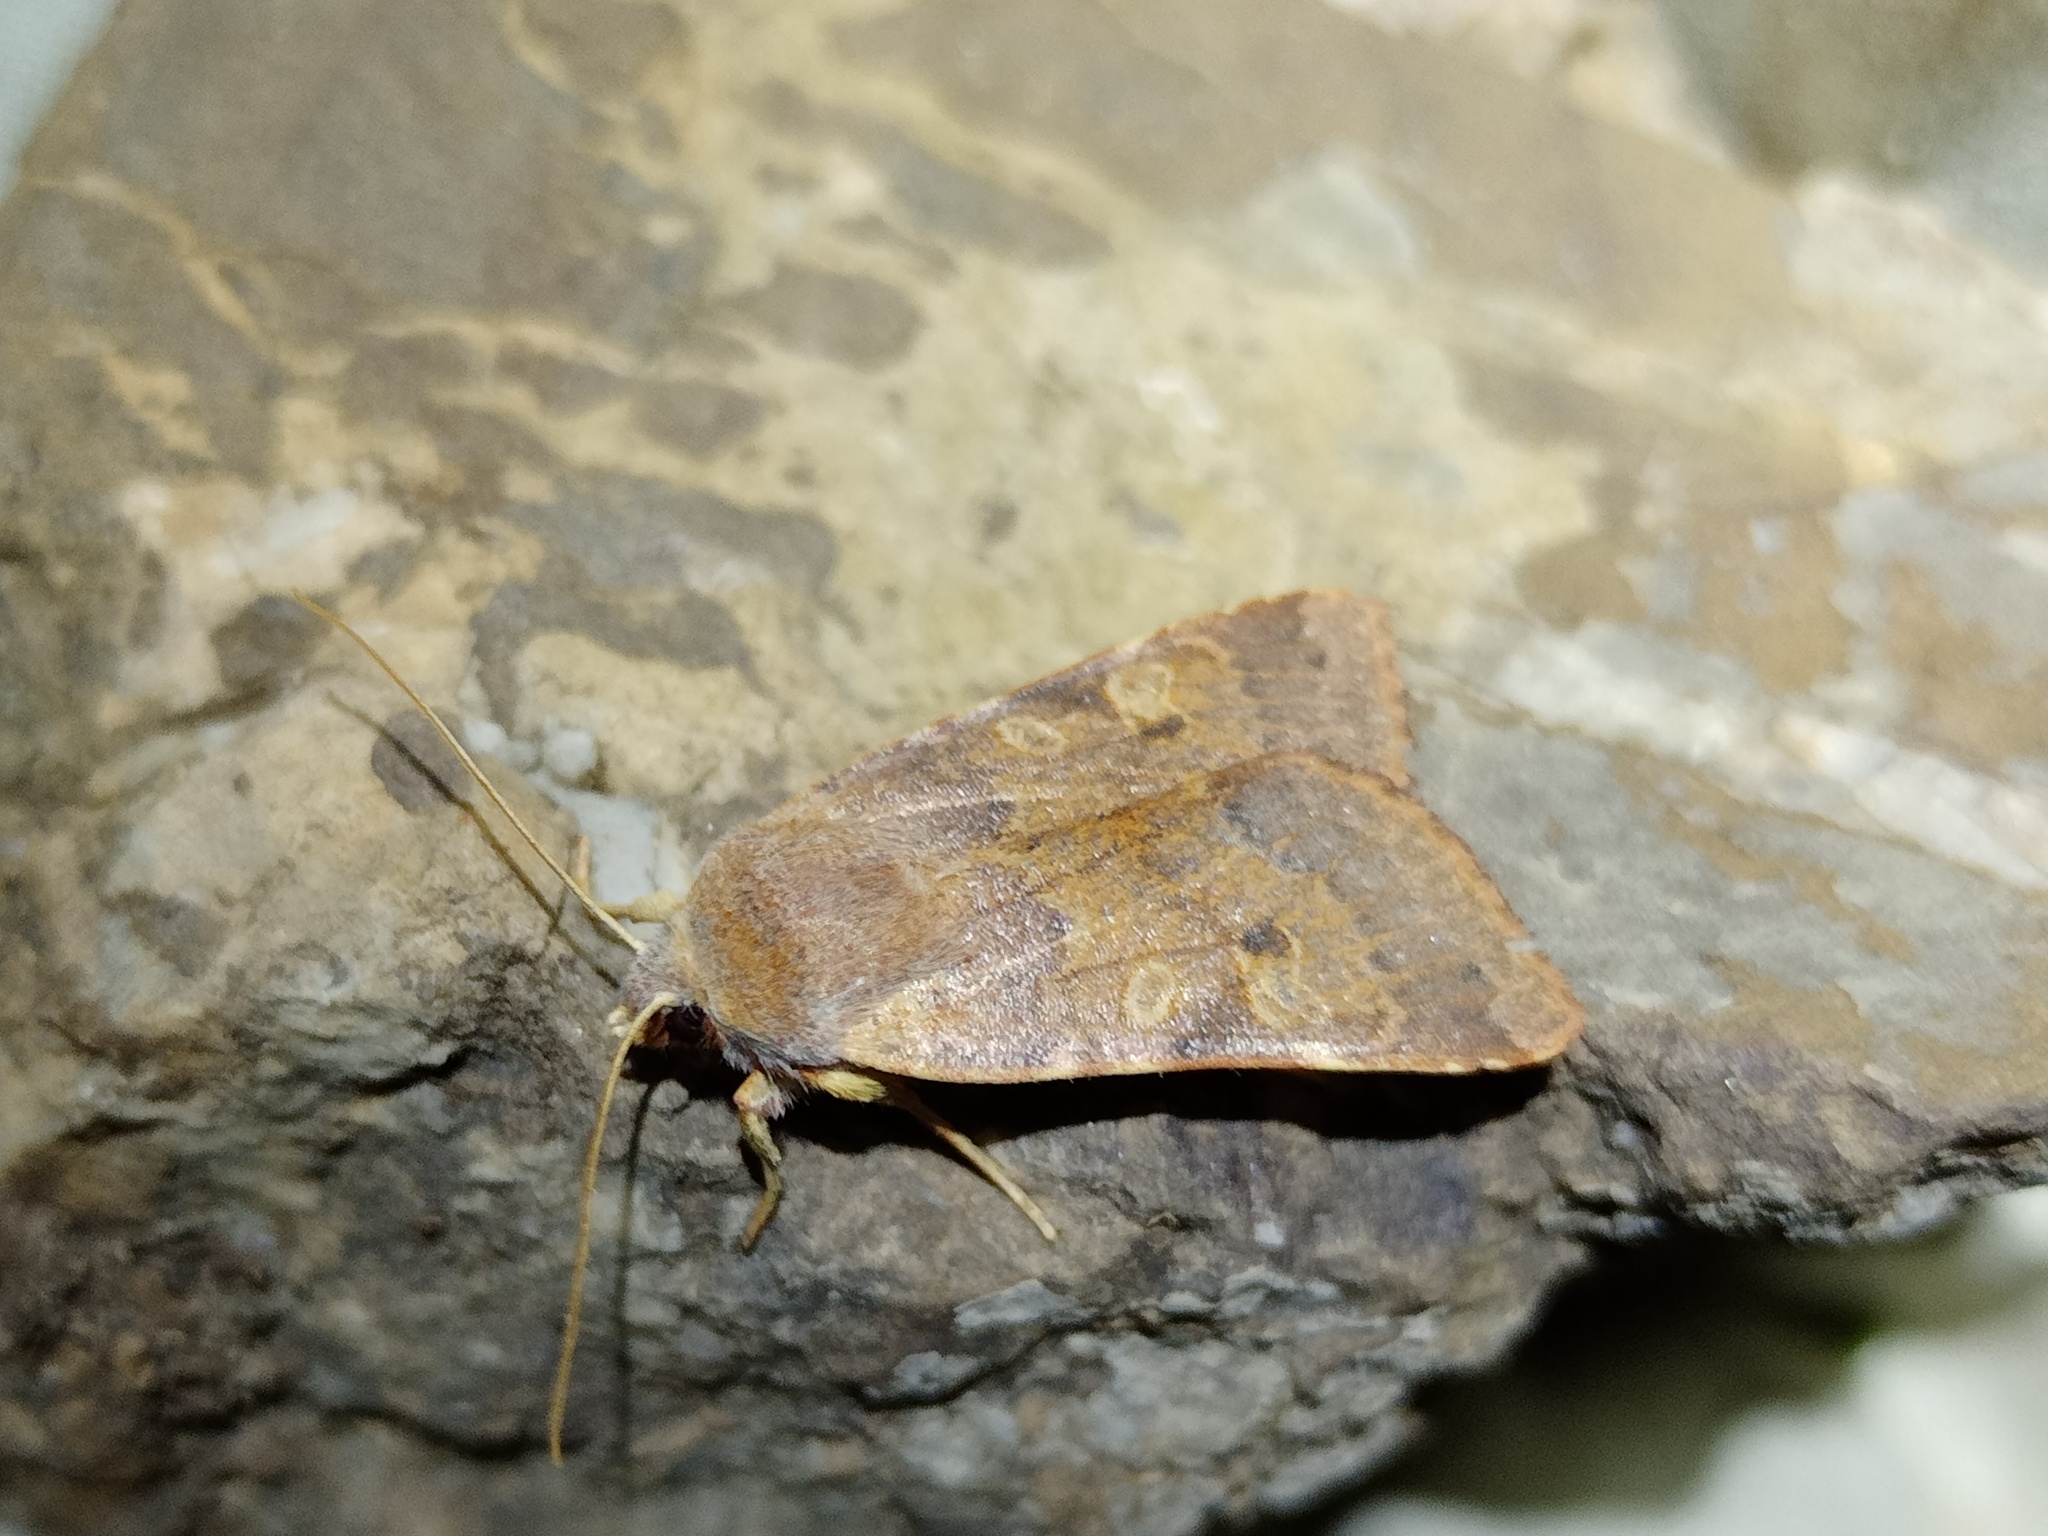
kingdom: Animalia
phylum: Arthropoda
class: Insecta
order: Lepidoptera
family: Noctuidae
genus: Agrochola
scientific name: Agrochola helvola
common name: Flounced chestnut
